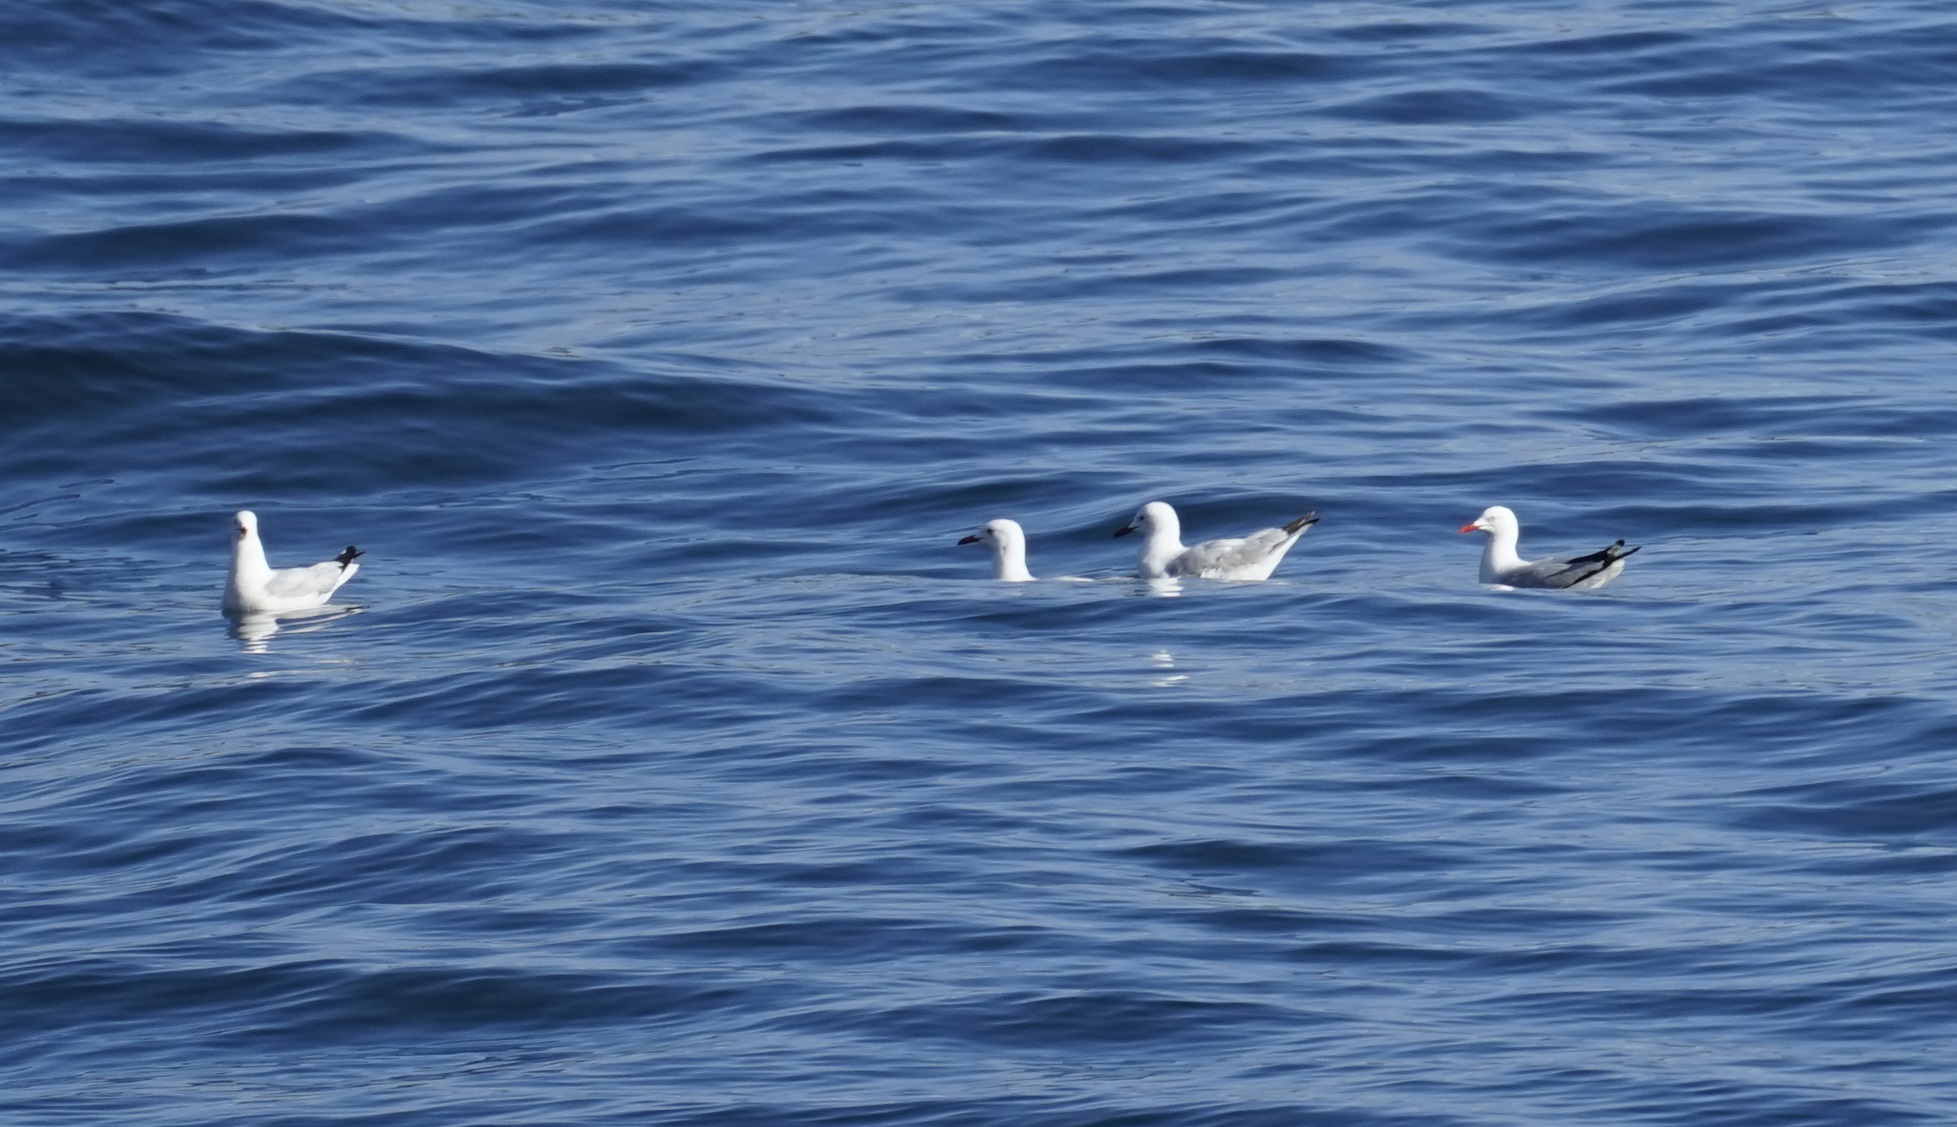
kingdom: Animalia
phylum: Chordata
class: Aves
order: Charadriiformes
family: Laridae
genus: Chroicocephalus
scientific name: Chroicocephalus novaehollandiae
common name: Silver gull
